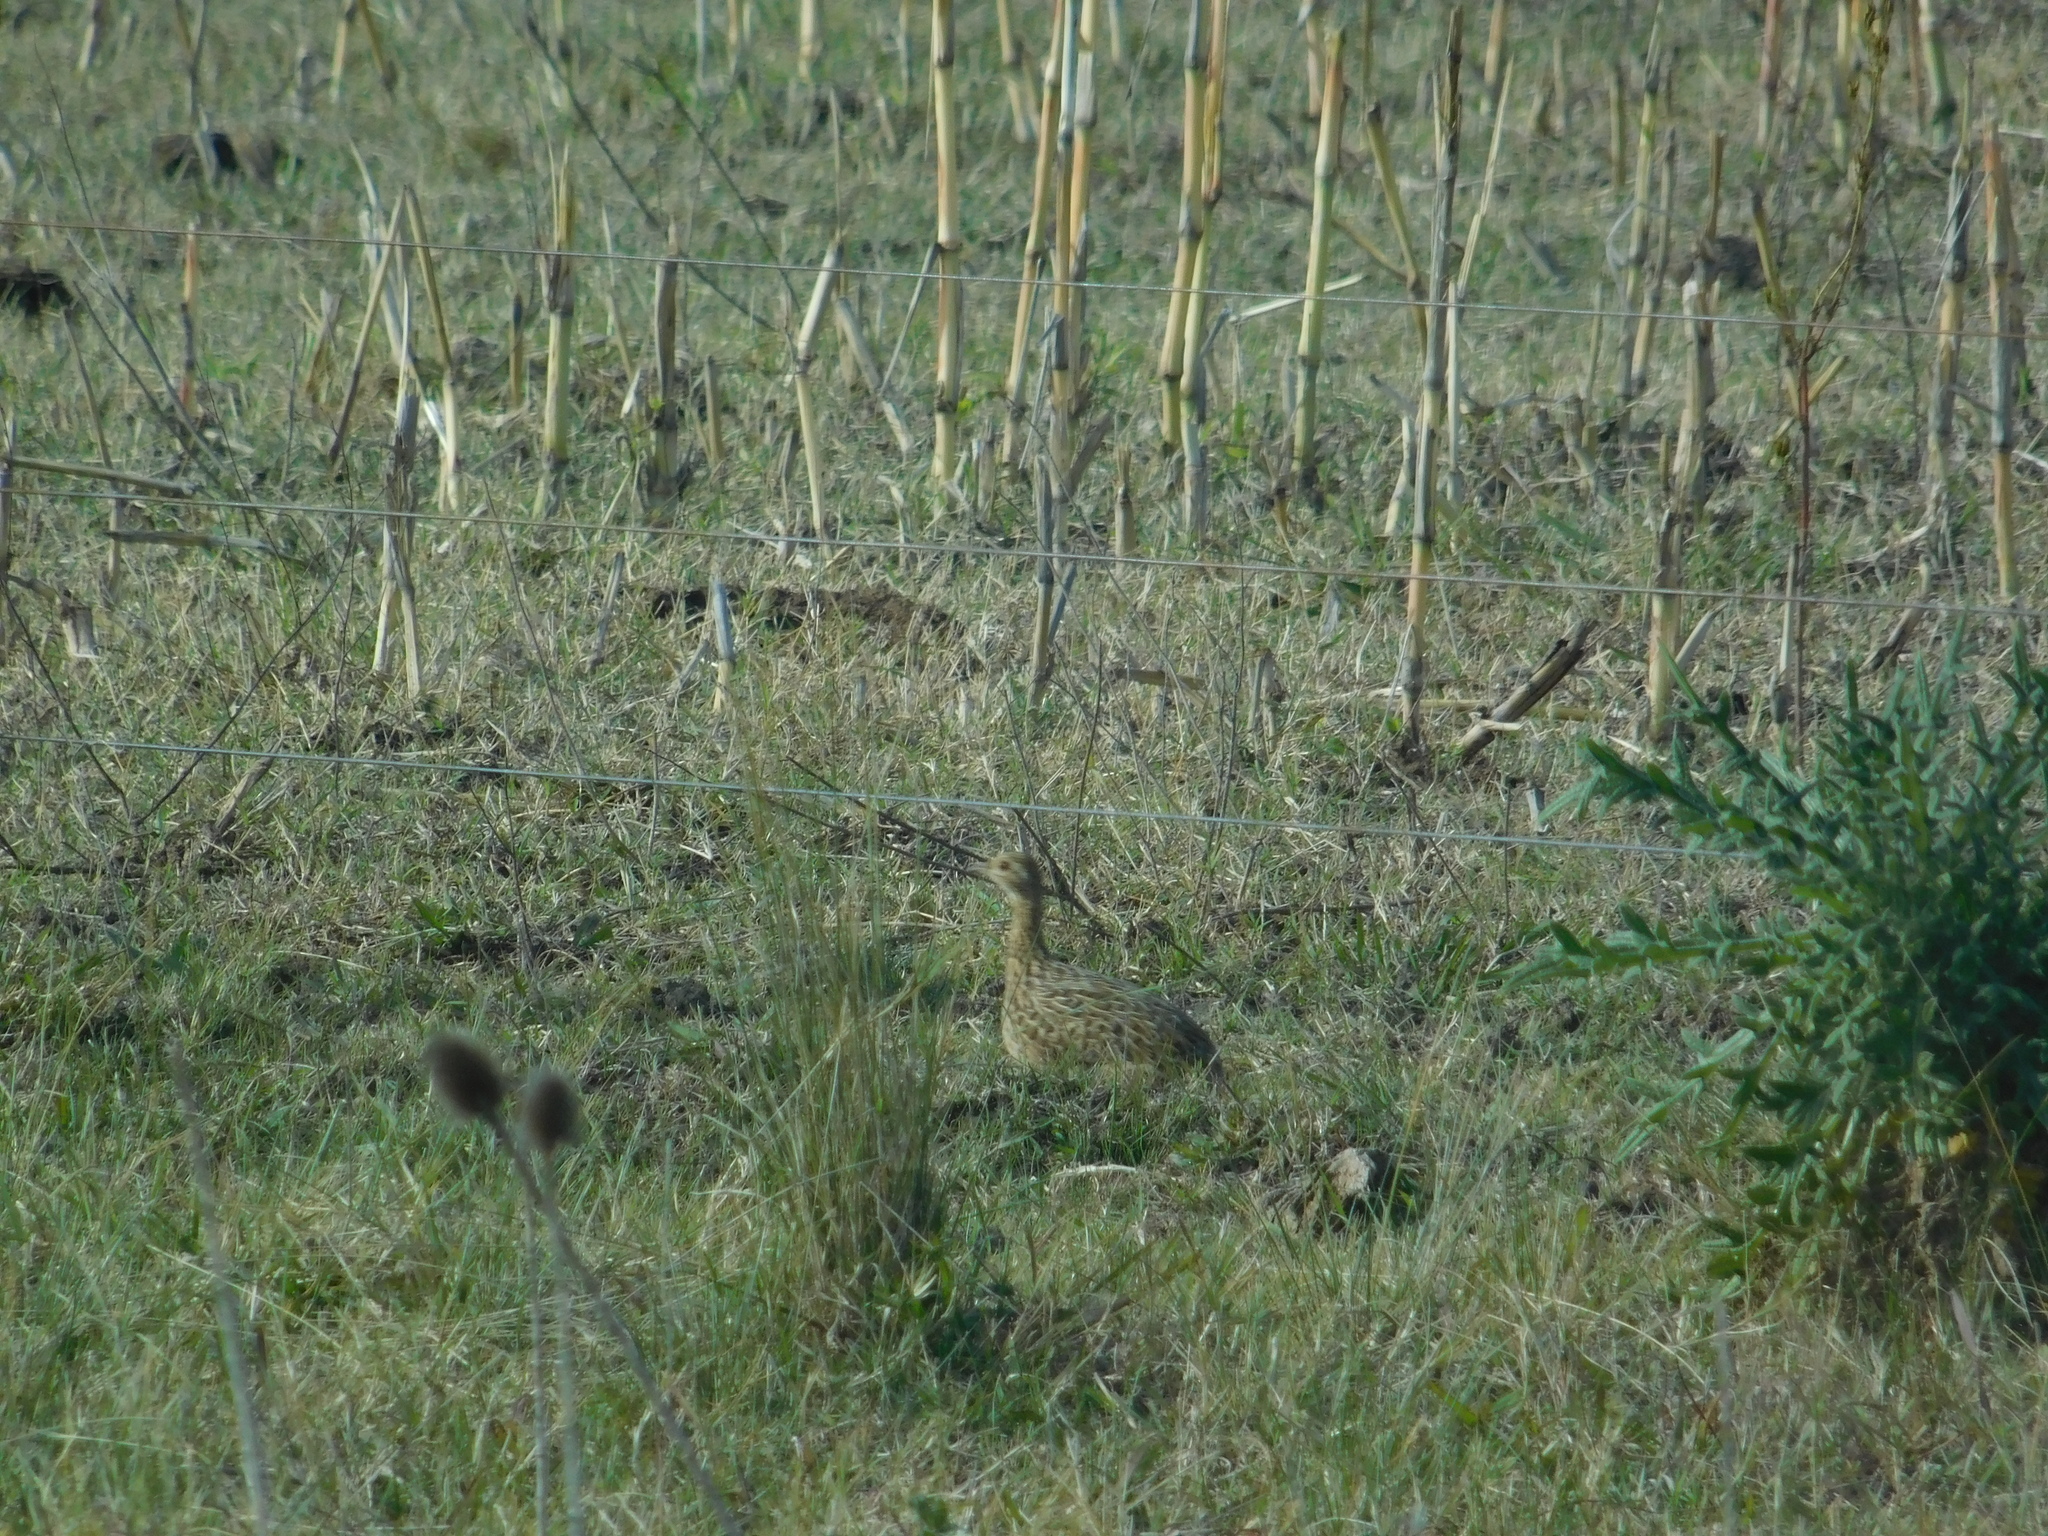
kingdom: Animalia
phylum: Chordata
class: Aves
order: Tinamiformes
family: Tinamidae
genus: Nothura
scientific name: Nothura maculosa
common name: Spotted nothura
